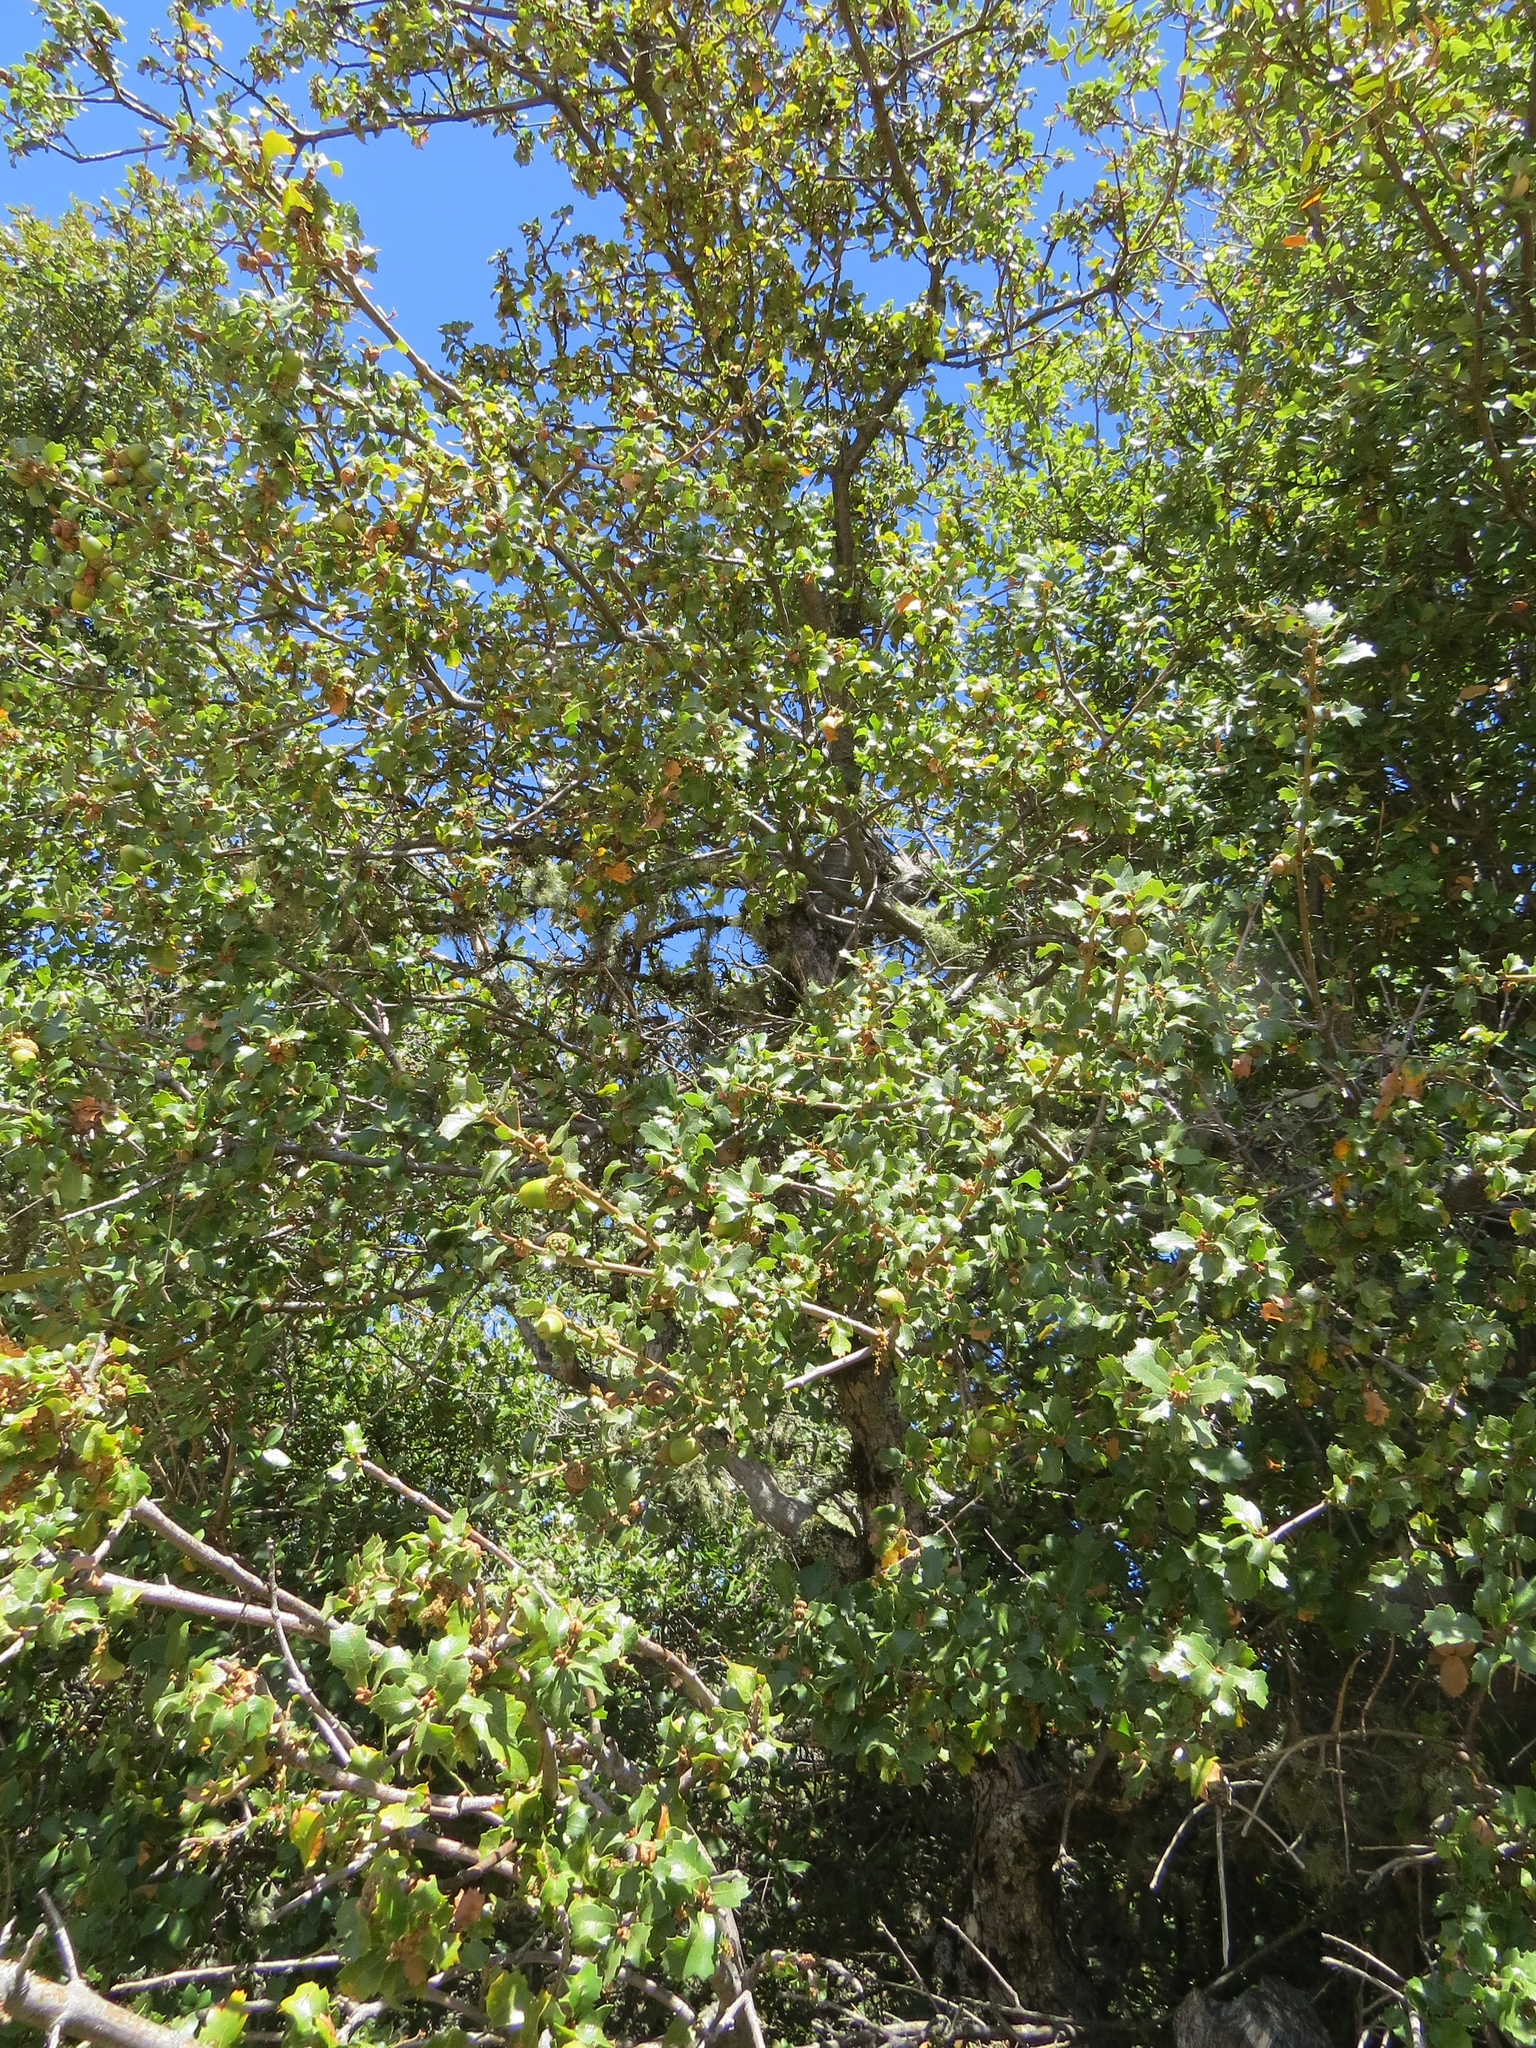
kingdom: Plantae
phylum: Tracheophyta
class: Magnoliopsida
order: Fagales
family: Fagaceae
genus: Quercus
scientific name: Quercus berberidifolia
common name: California scrub oak
